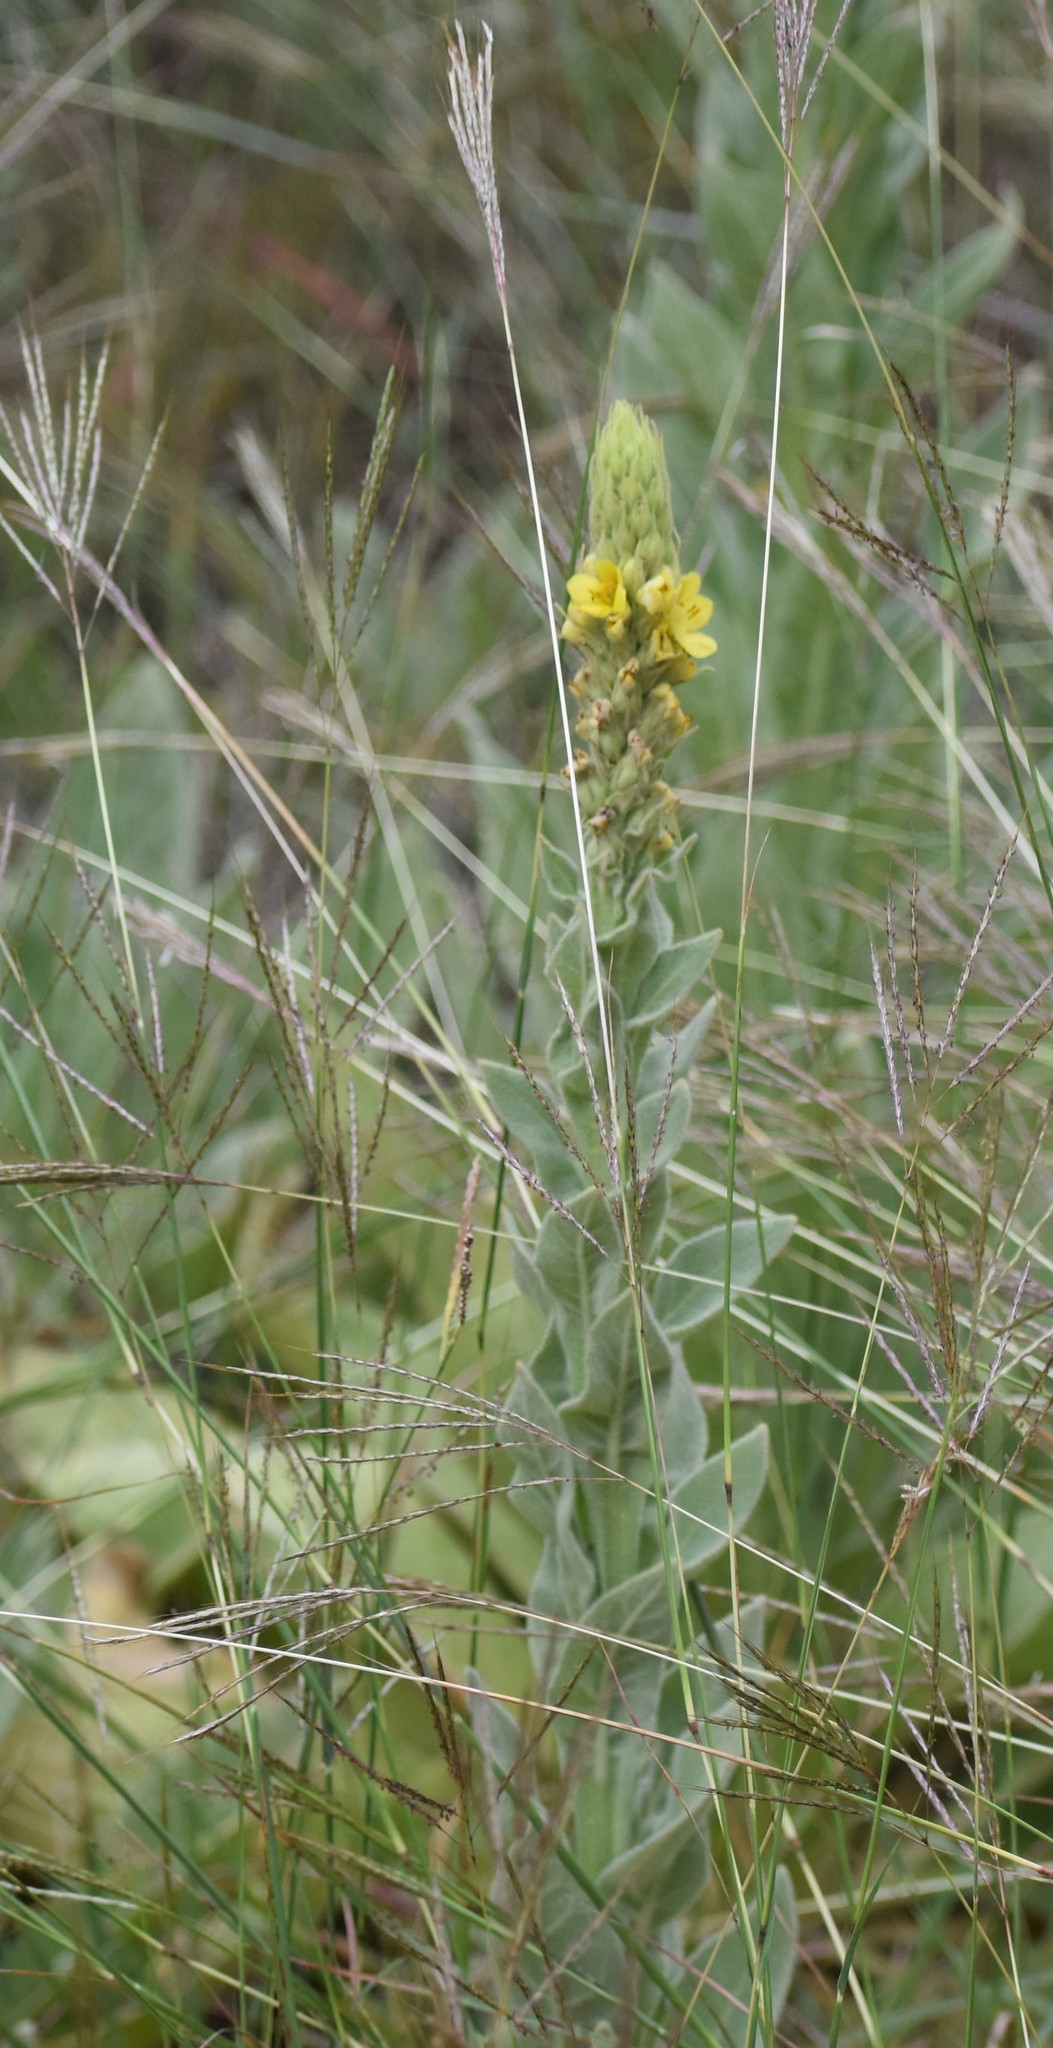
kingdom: Plantae
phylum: Tracheophyta
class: Magnoliopsida
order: Lamiales
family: Scrophulariaceae
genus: Verbascum
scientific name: Verbascum thapsus
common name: Common mullein
